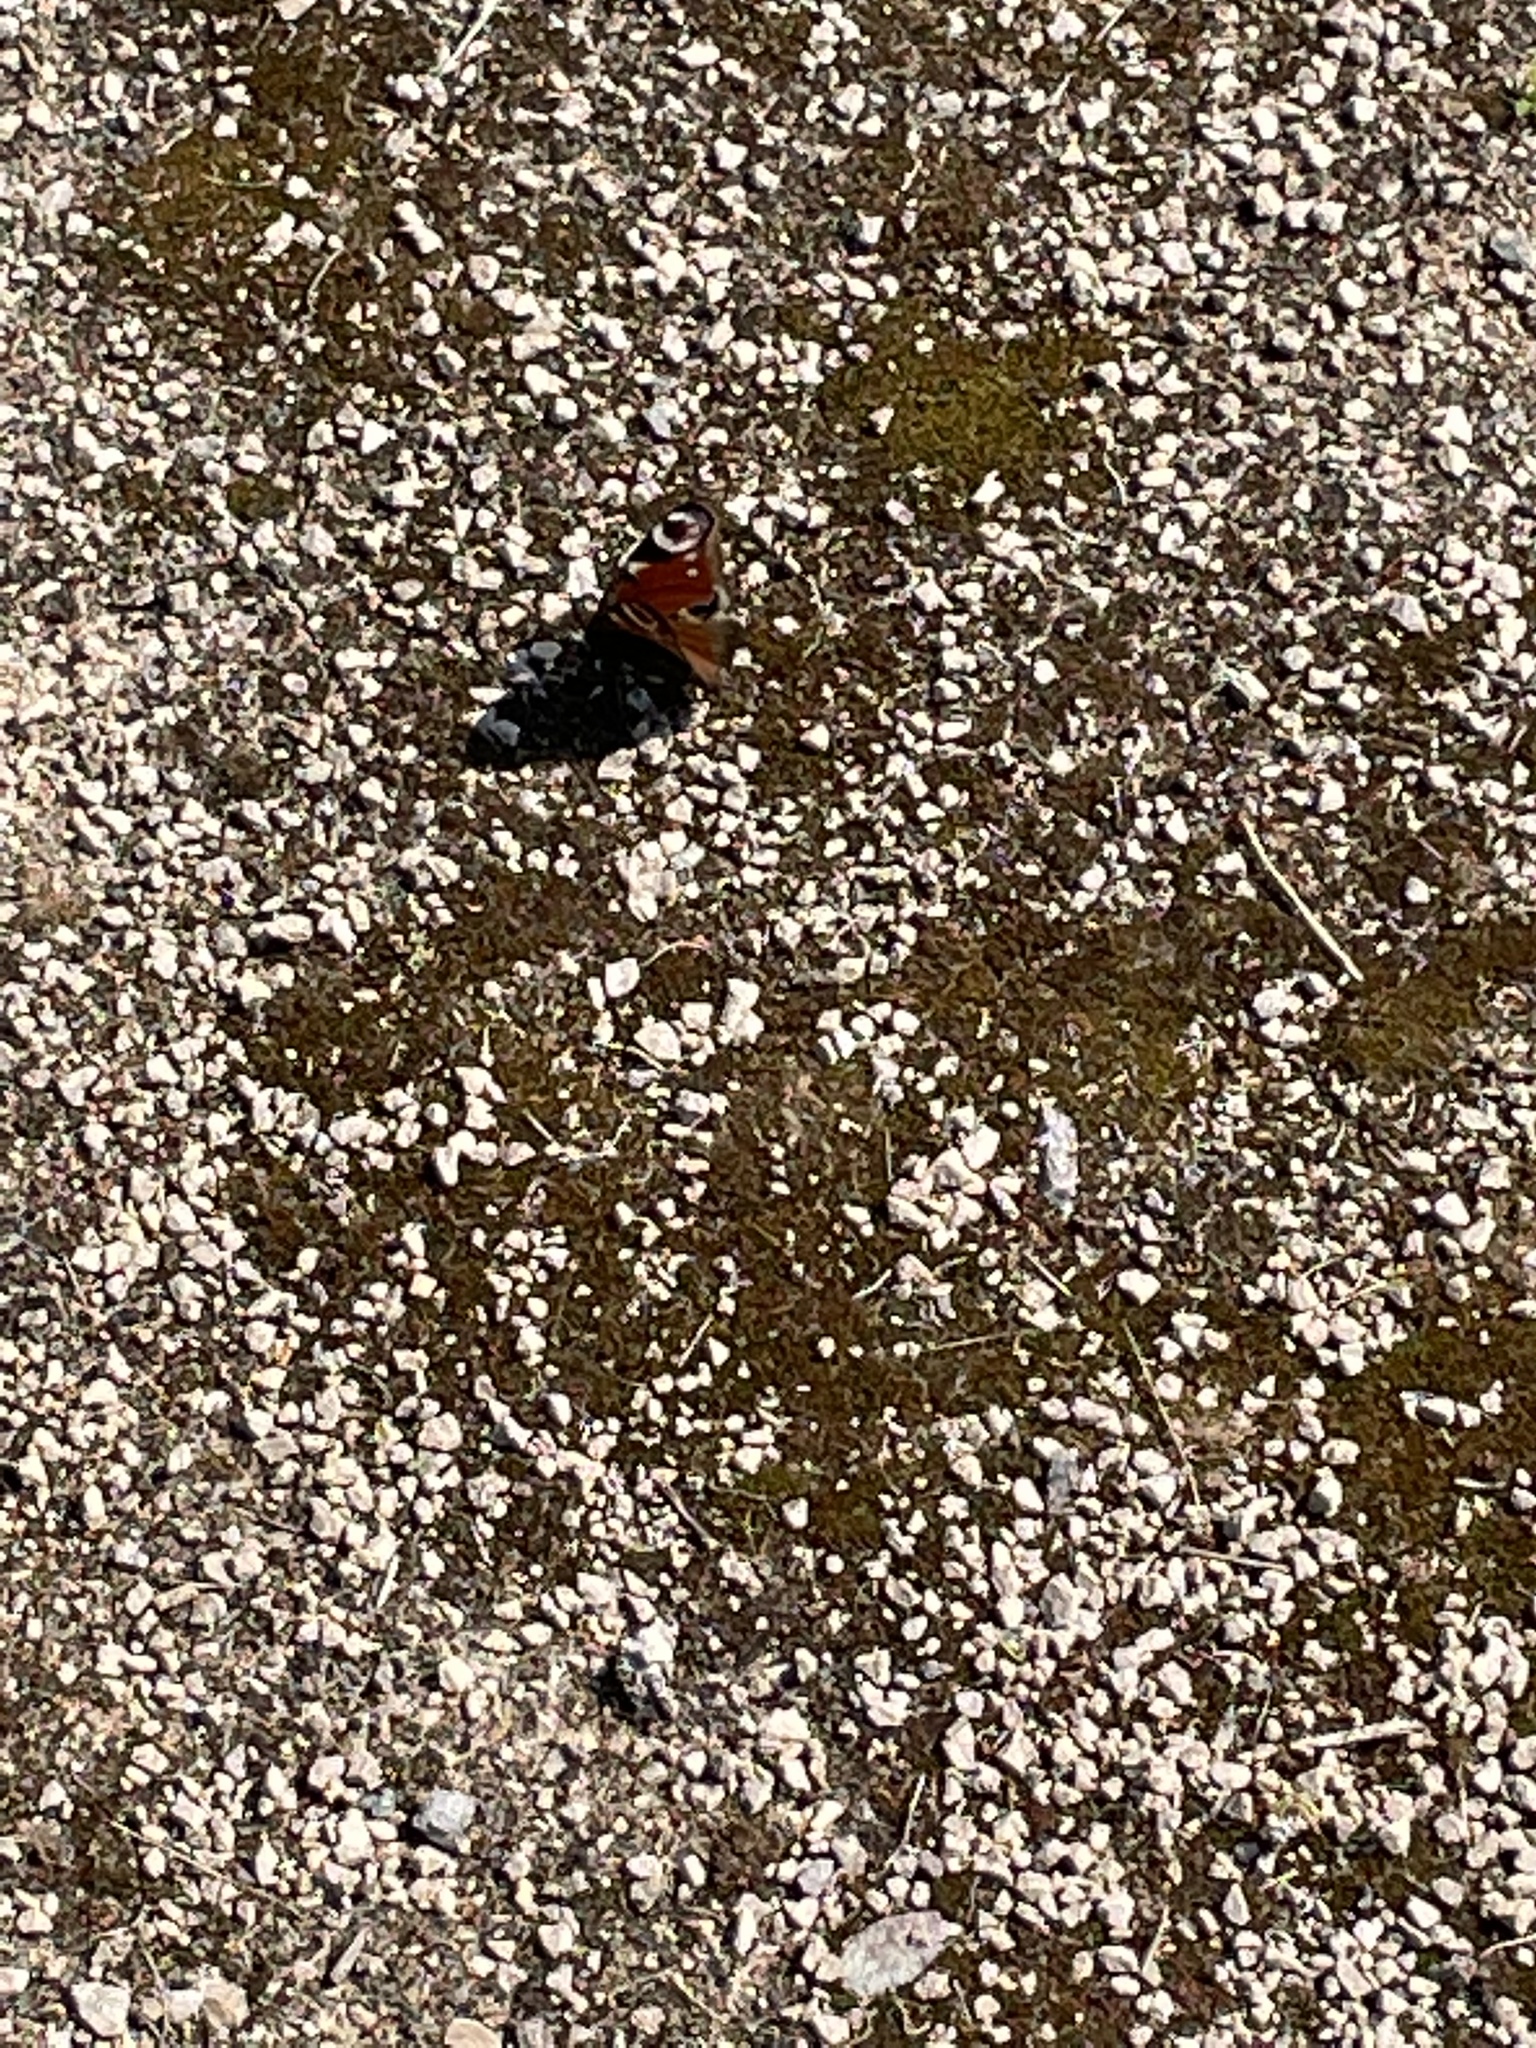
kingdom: Animalia
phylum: Arthropoda
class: Insecta
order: Lepidoptera
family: Nymphalidae
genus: Aglais
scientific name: Aglais io
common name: Peacock
